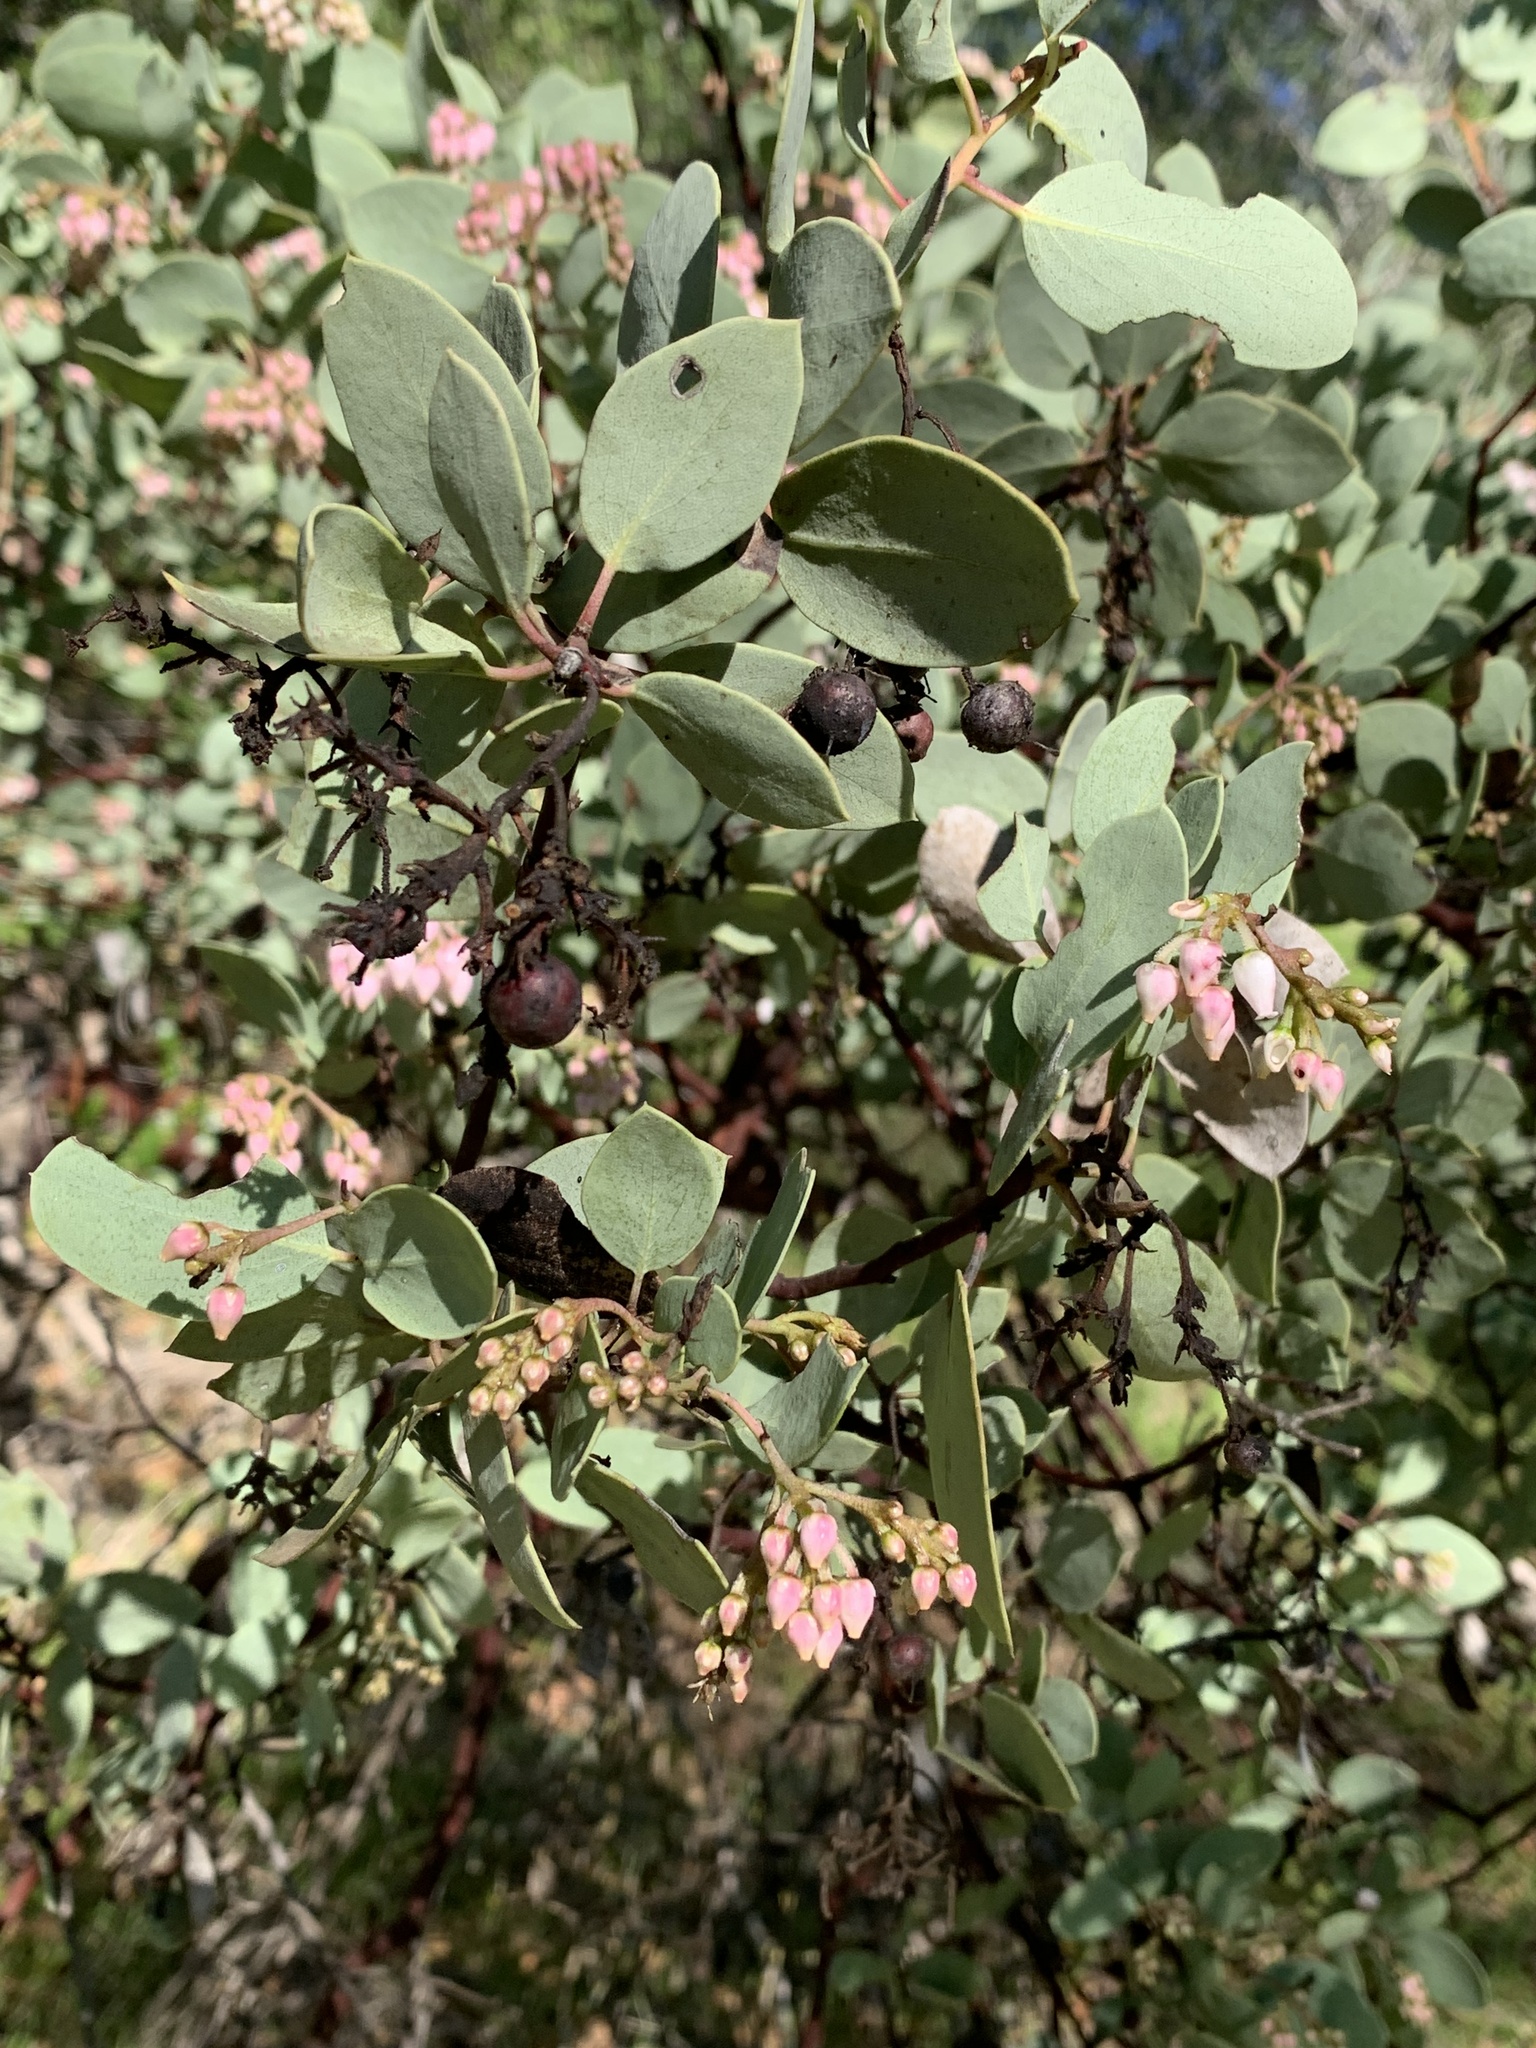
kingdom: Plantae
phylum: Tracheophyta
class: Magnoliopsida
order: Ericales
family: Ericaceae
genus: Arctostaphylos
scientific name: Arctostaphylos viscida
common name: White-leaf manzanita
